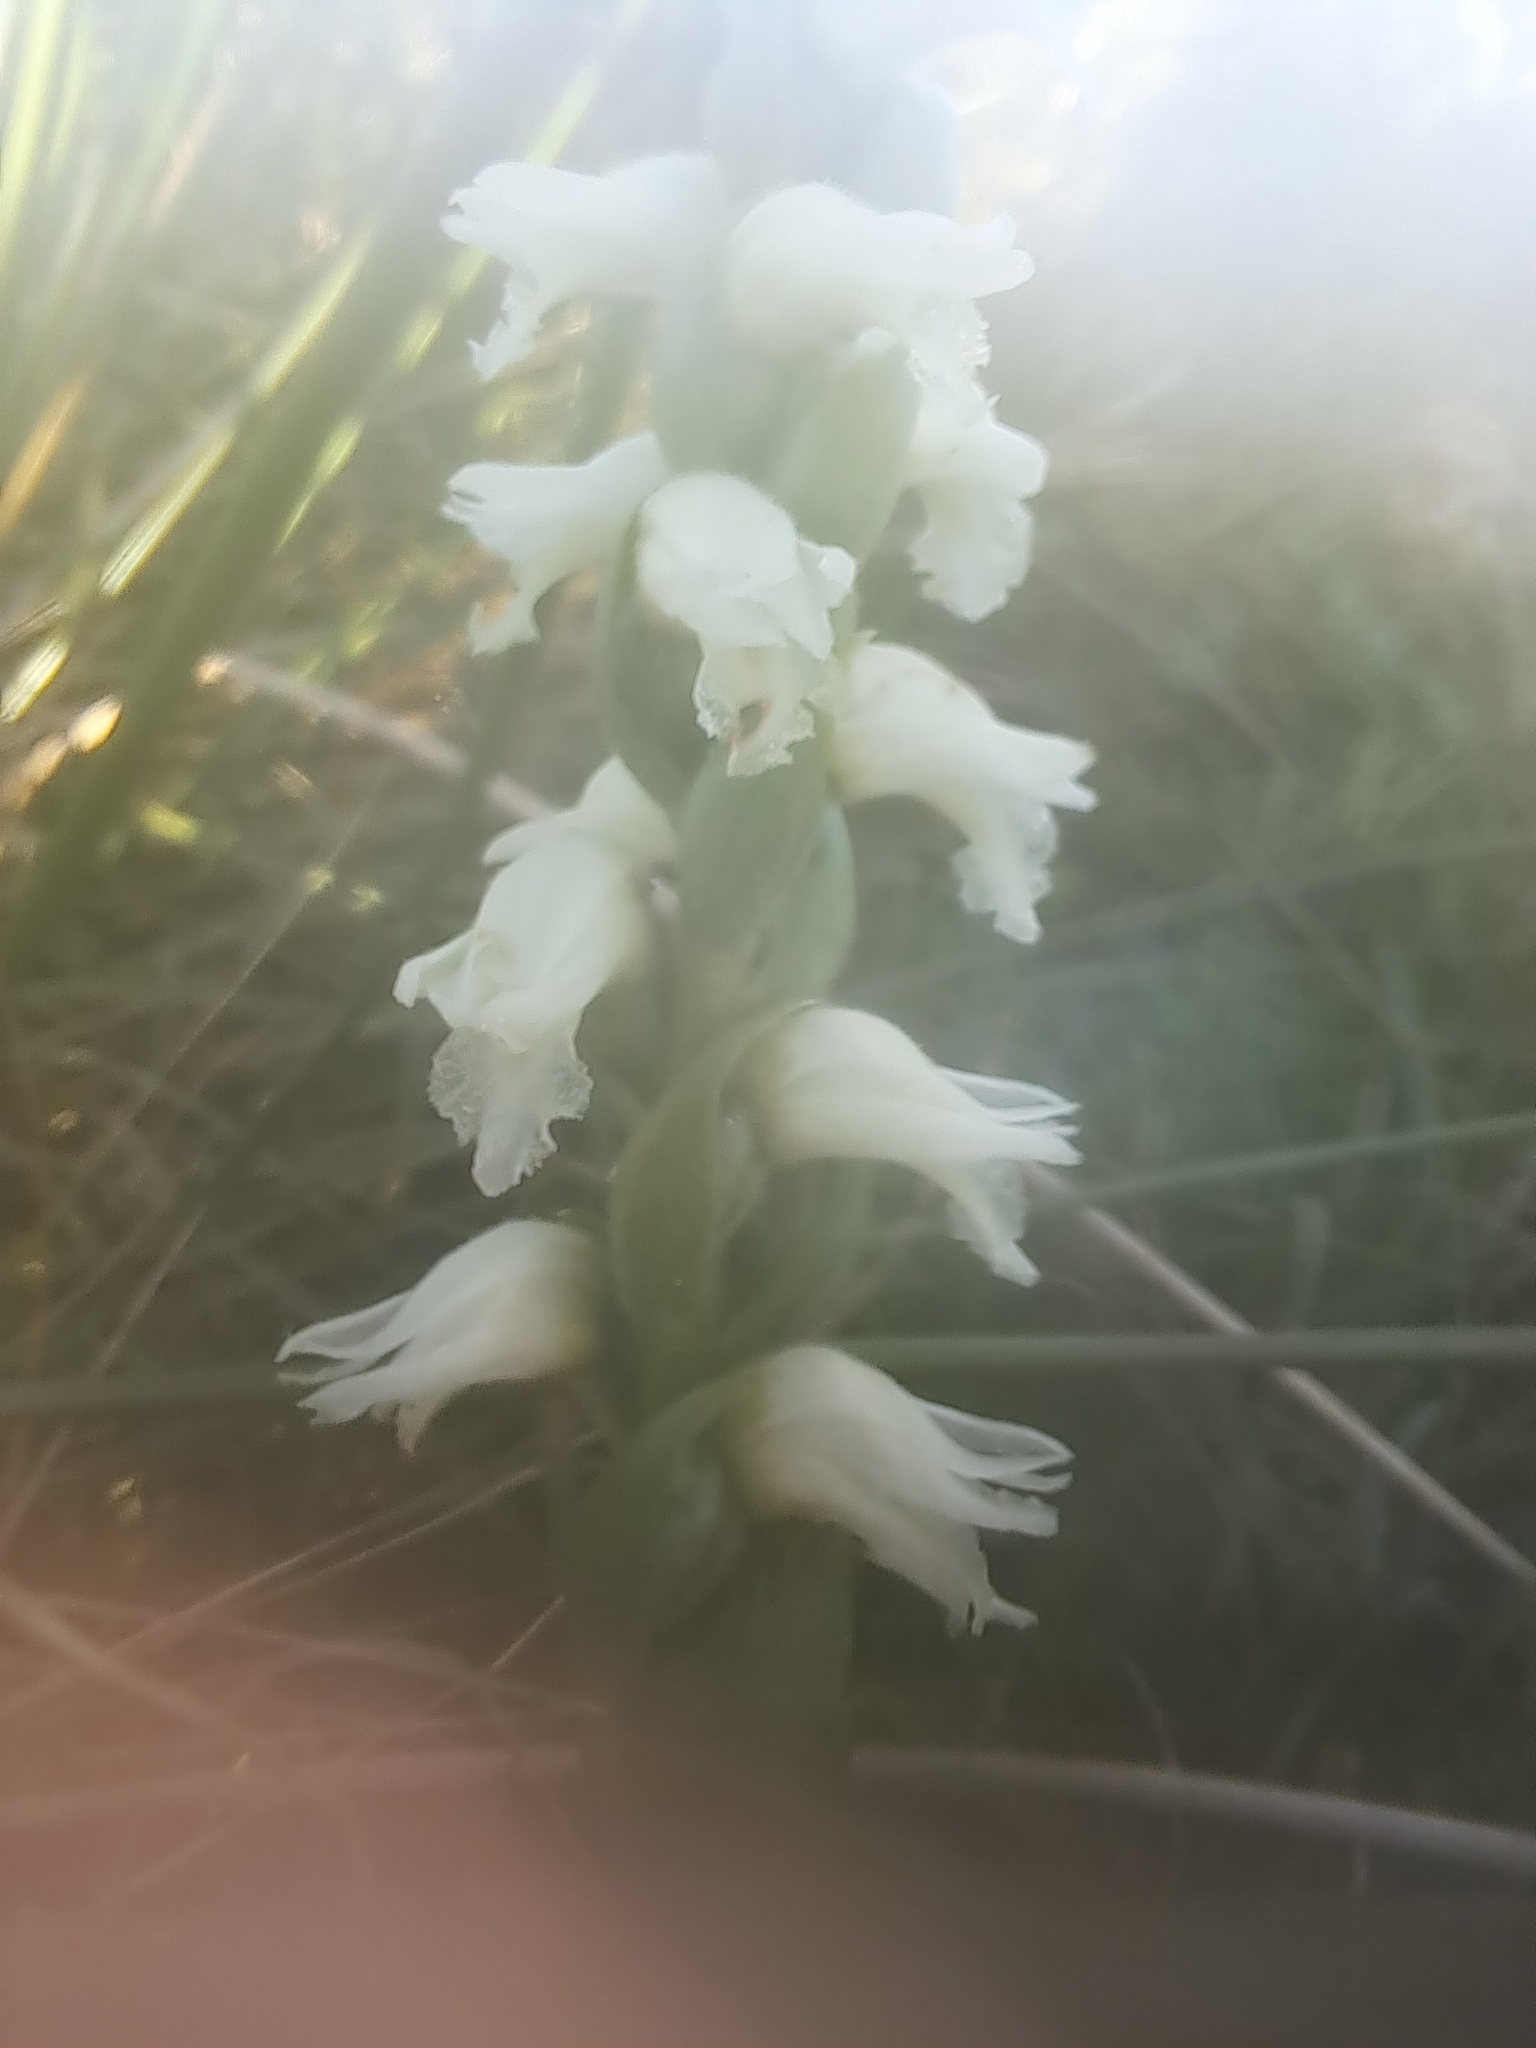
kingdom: Plantae
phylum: Tracheophyta
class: Liliopsida
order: Asparagales
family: Orchidaceae
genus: Spiranthes
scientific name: Spiranthes cernua
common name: Dropping ladies'-tresses
